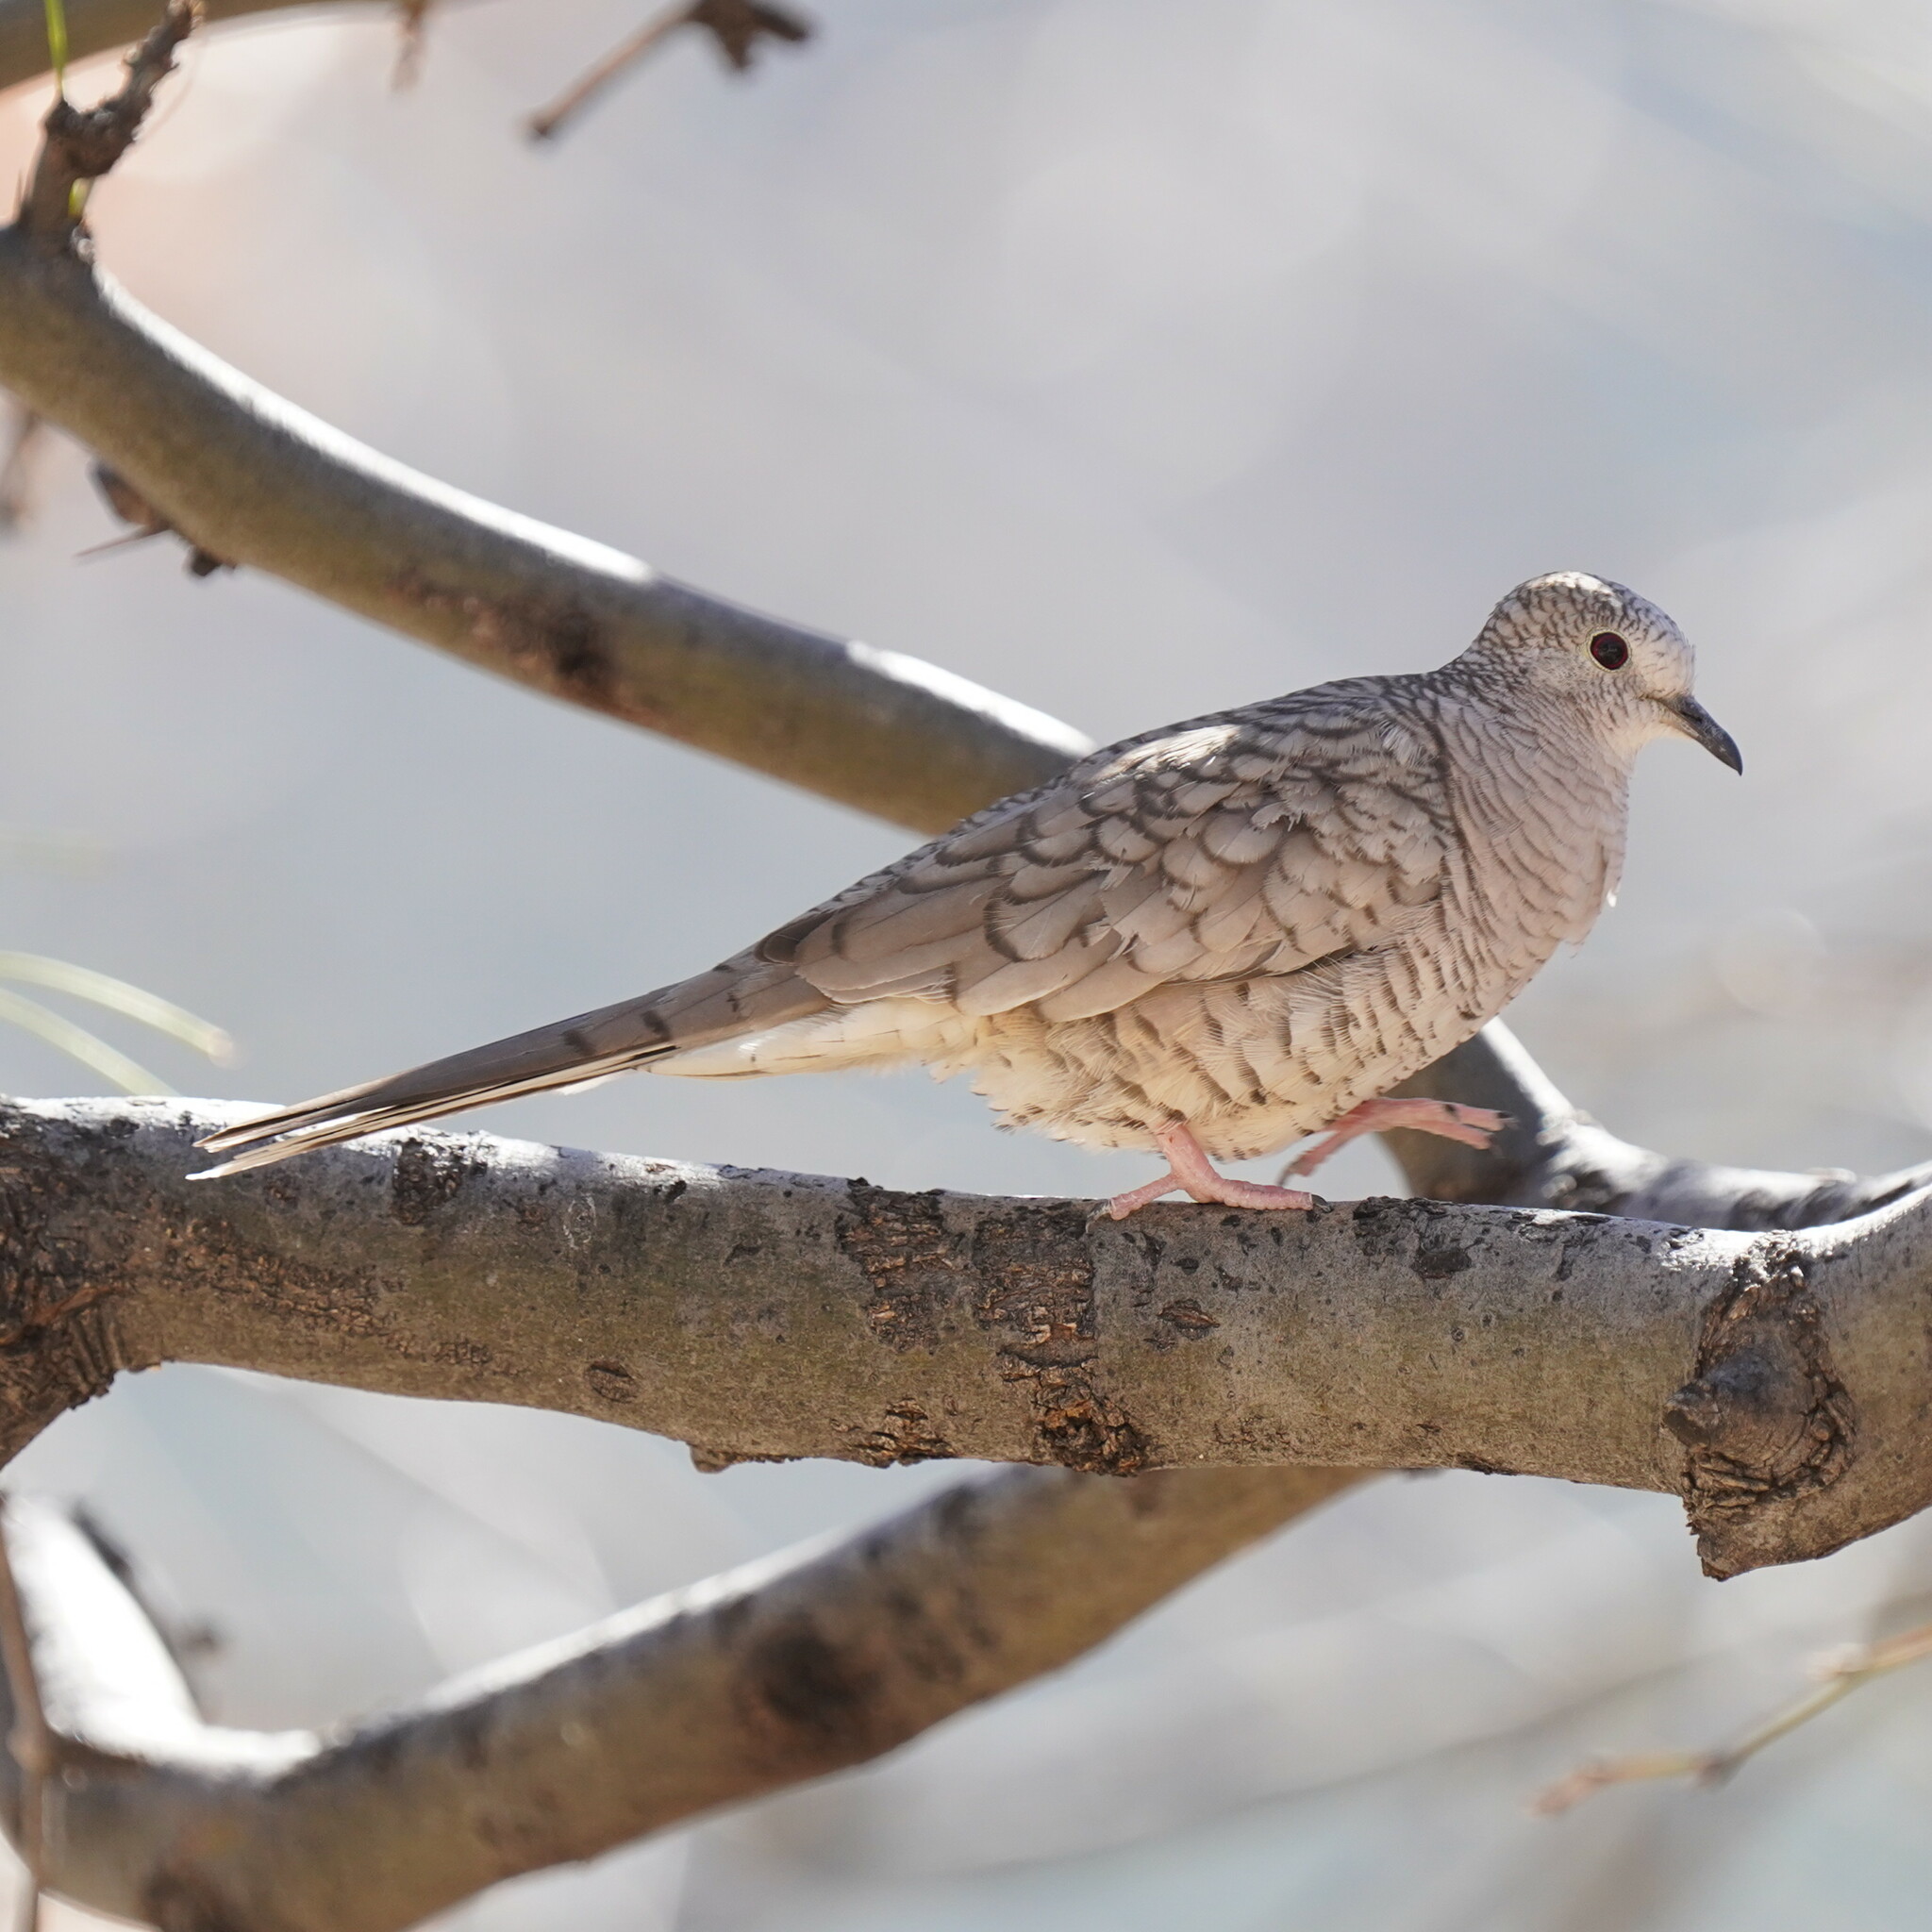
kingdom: Animalia
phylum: Chordata
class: Aves
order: Columbiformes
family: Columbidae
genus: Columbina
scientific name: Columbina inca
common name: Inca dove
